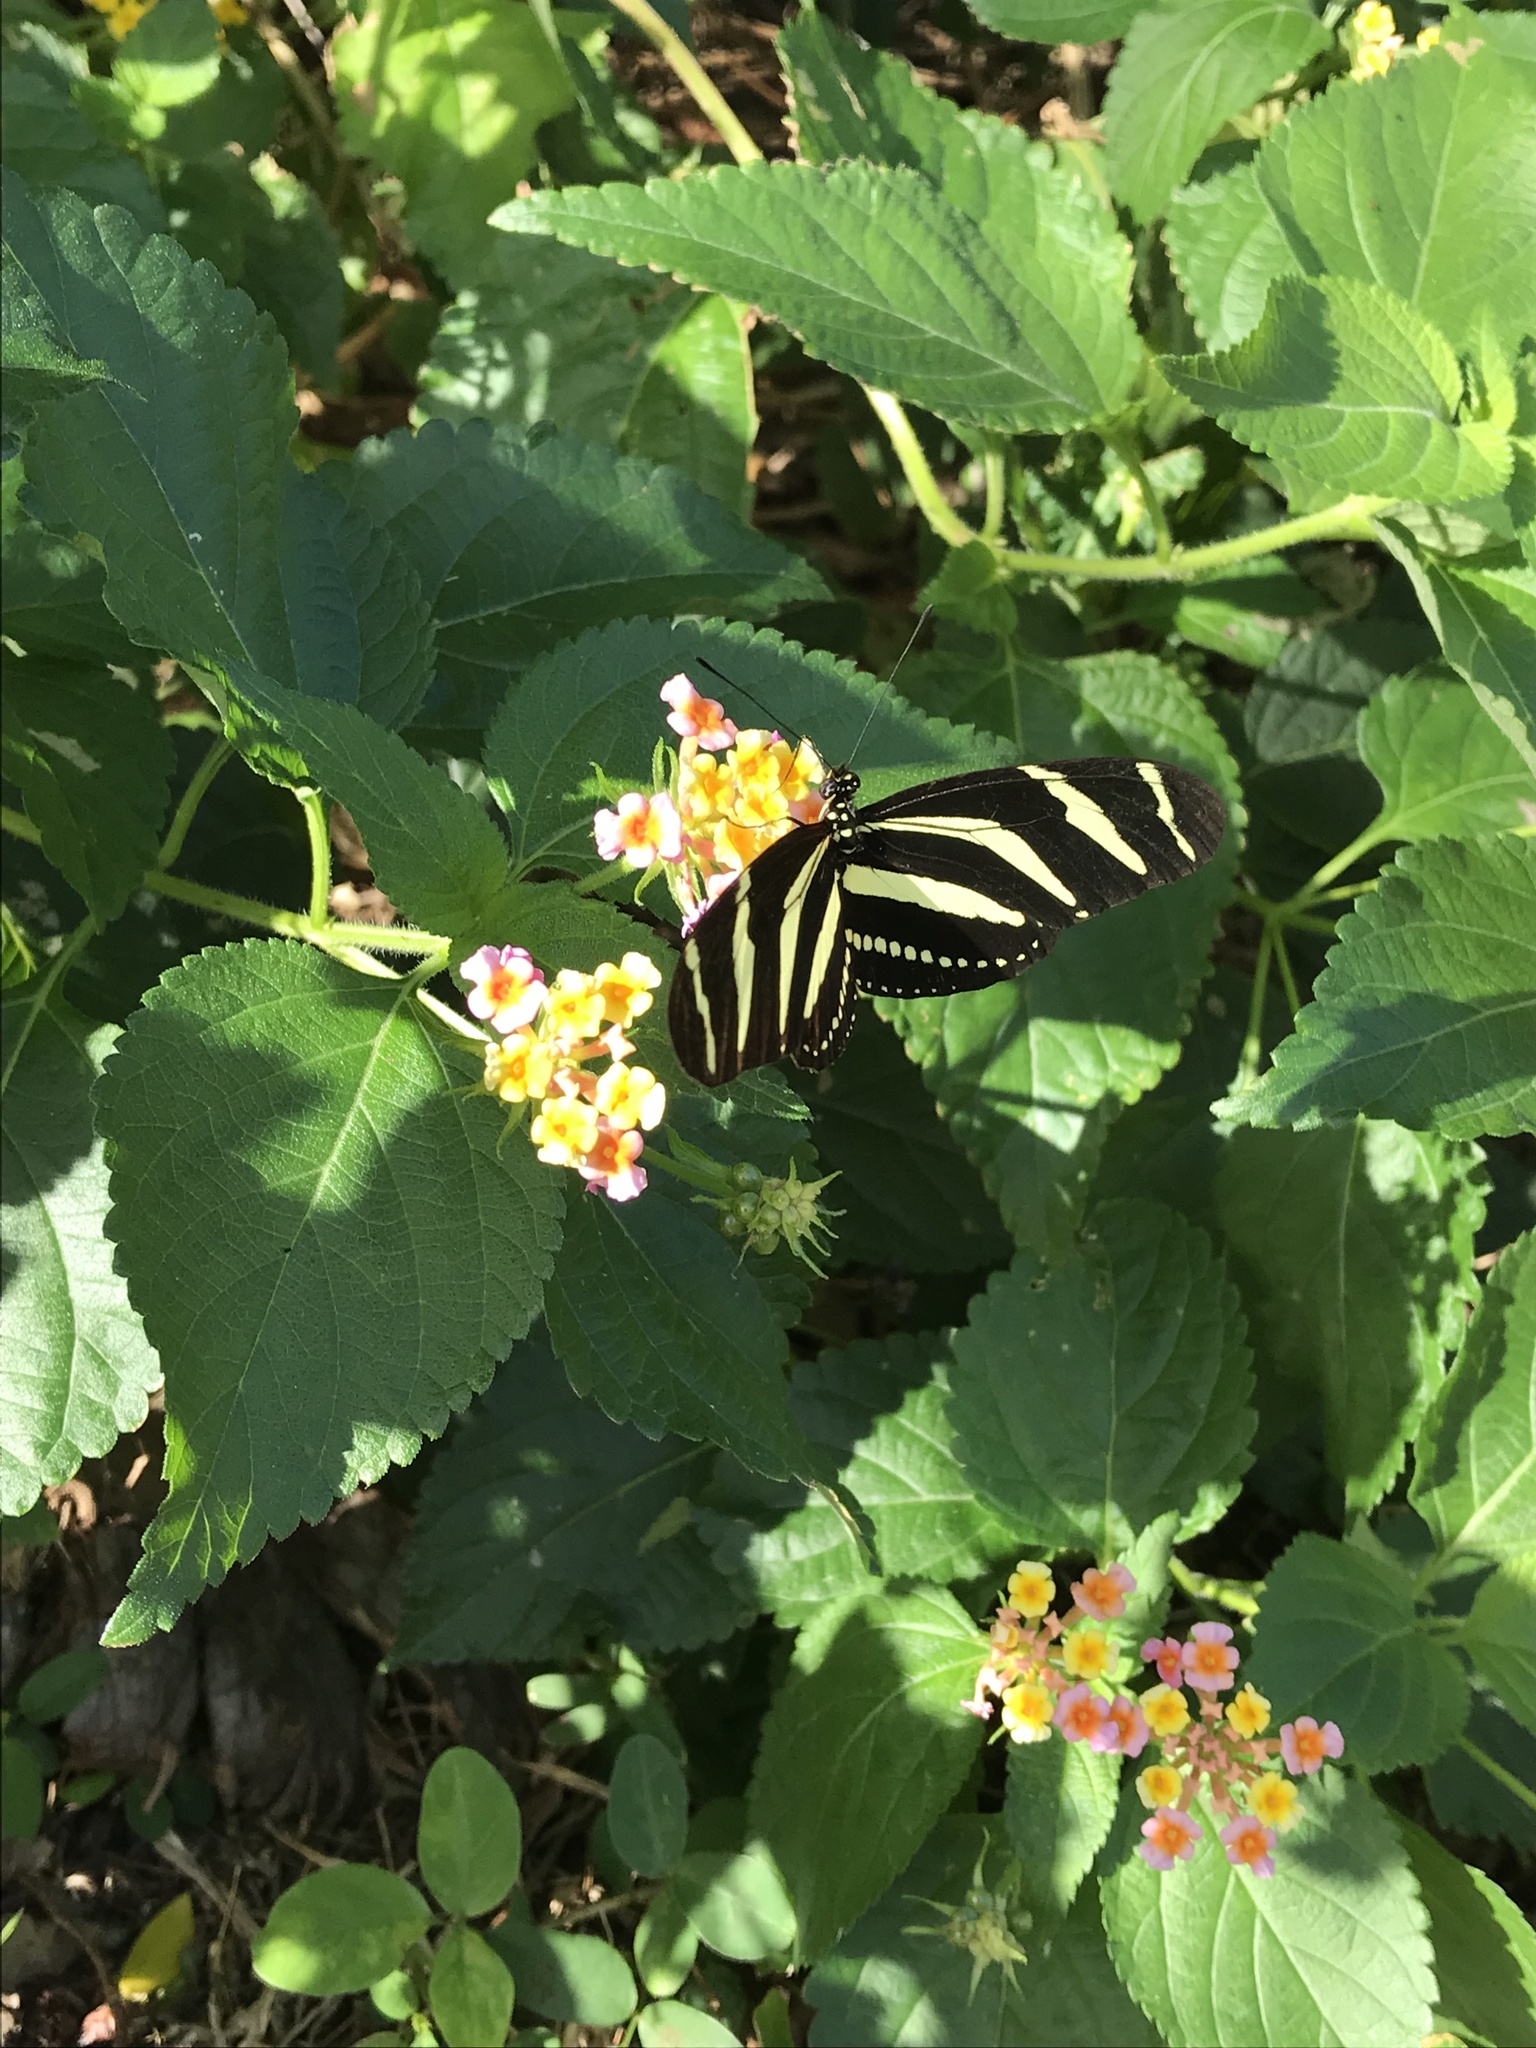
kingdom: Animalia
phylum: Arthropoda
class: Insecta
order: Lepidoptera
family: Nymphalidae
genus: Heliconius
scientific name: Heliconius charithonia
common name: Zebra long wing
